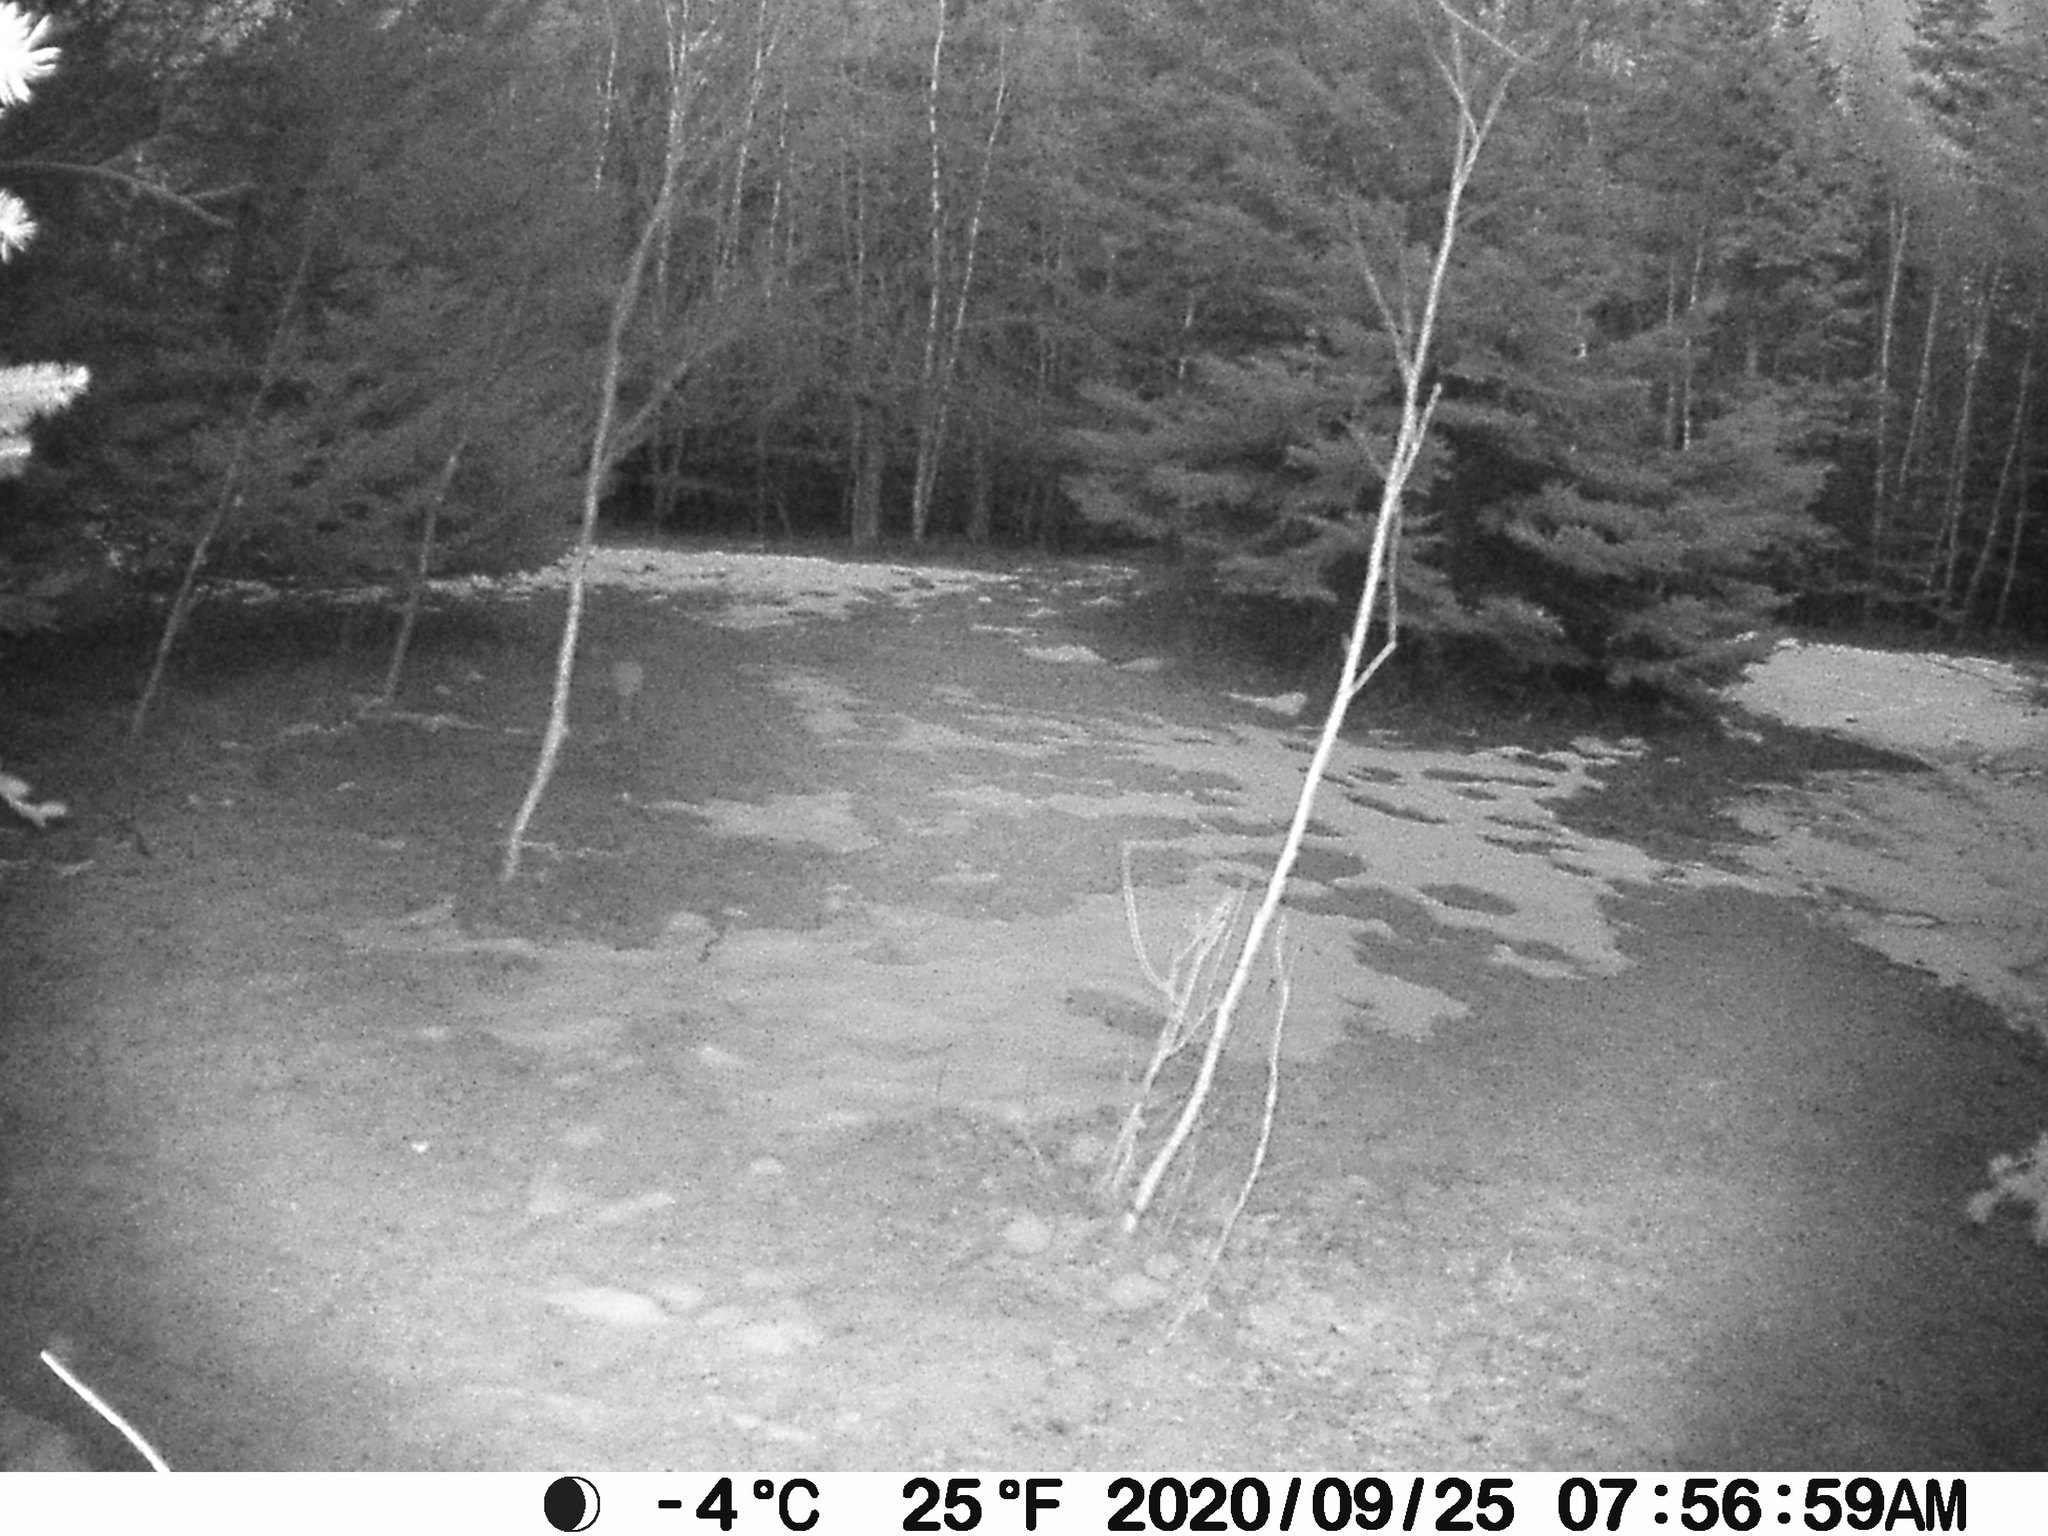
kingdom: Animalia
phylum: Chordata
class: Mammalia
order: Lagomorpha
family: Leporidae
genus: Lepus
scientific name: Lepus americanus
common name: Snowshoe hare
